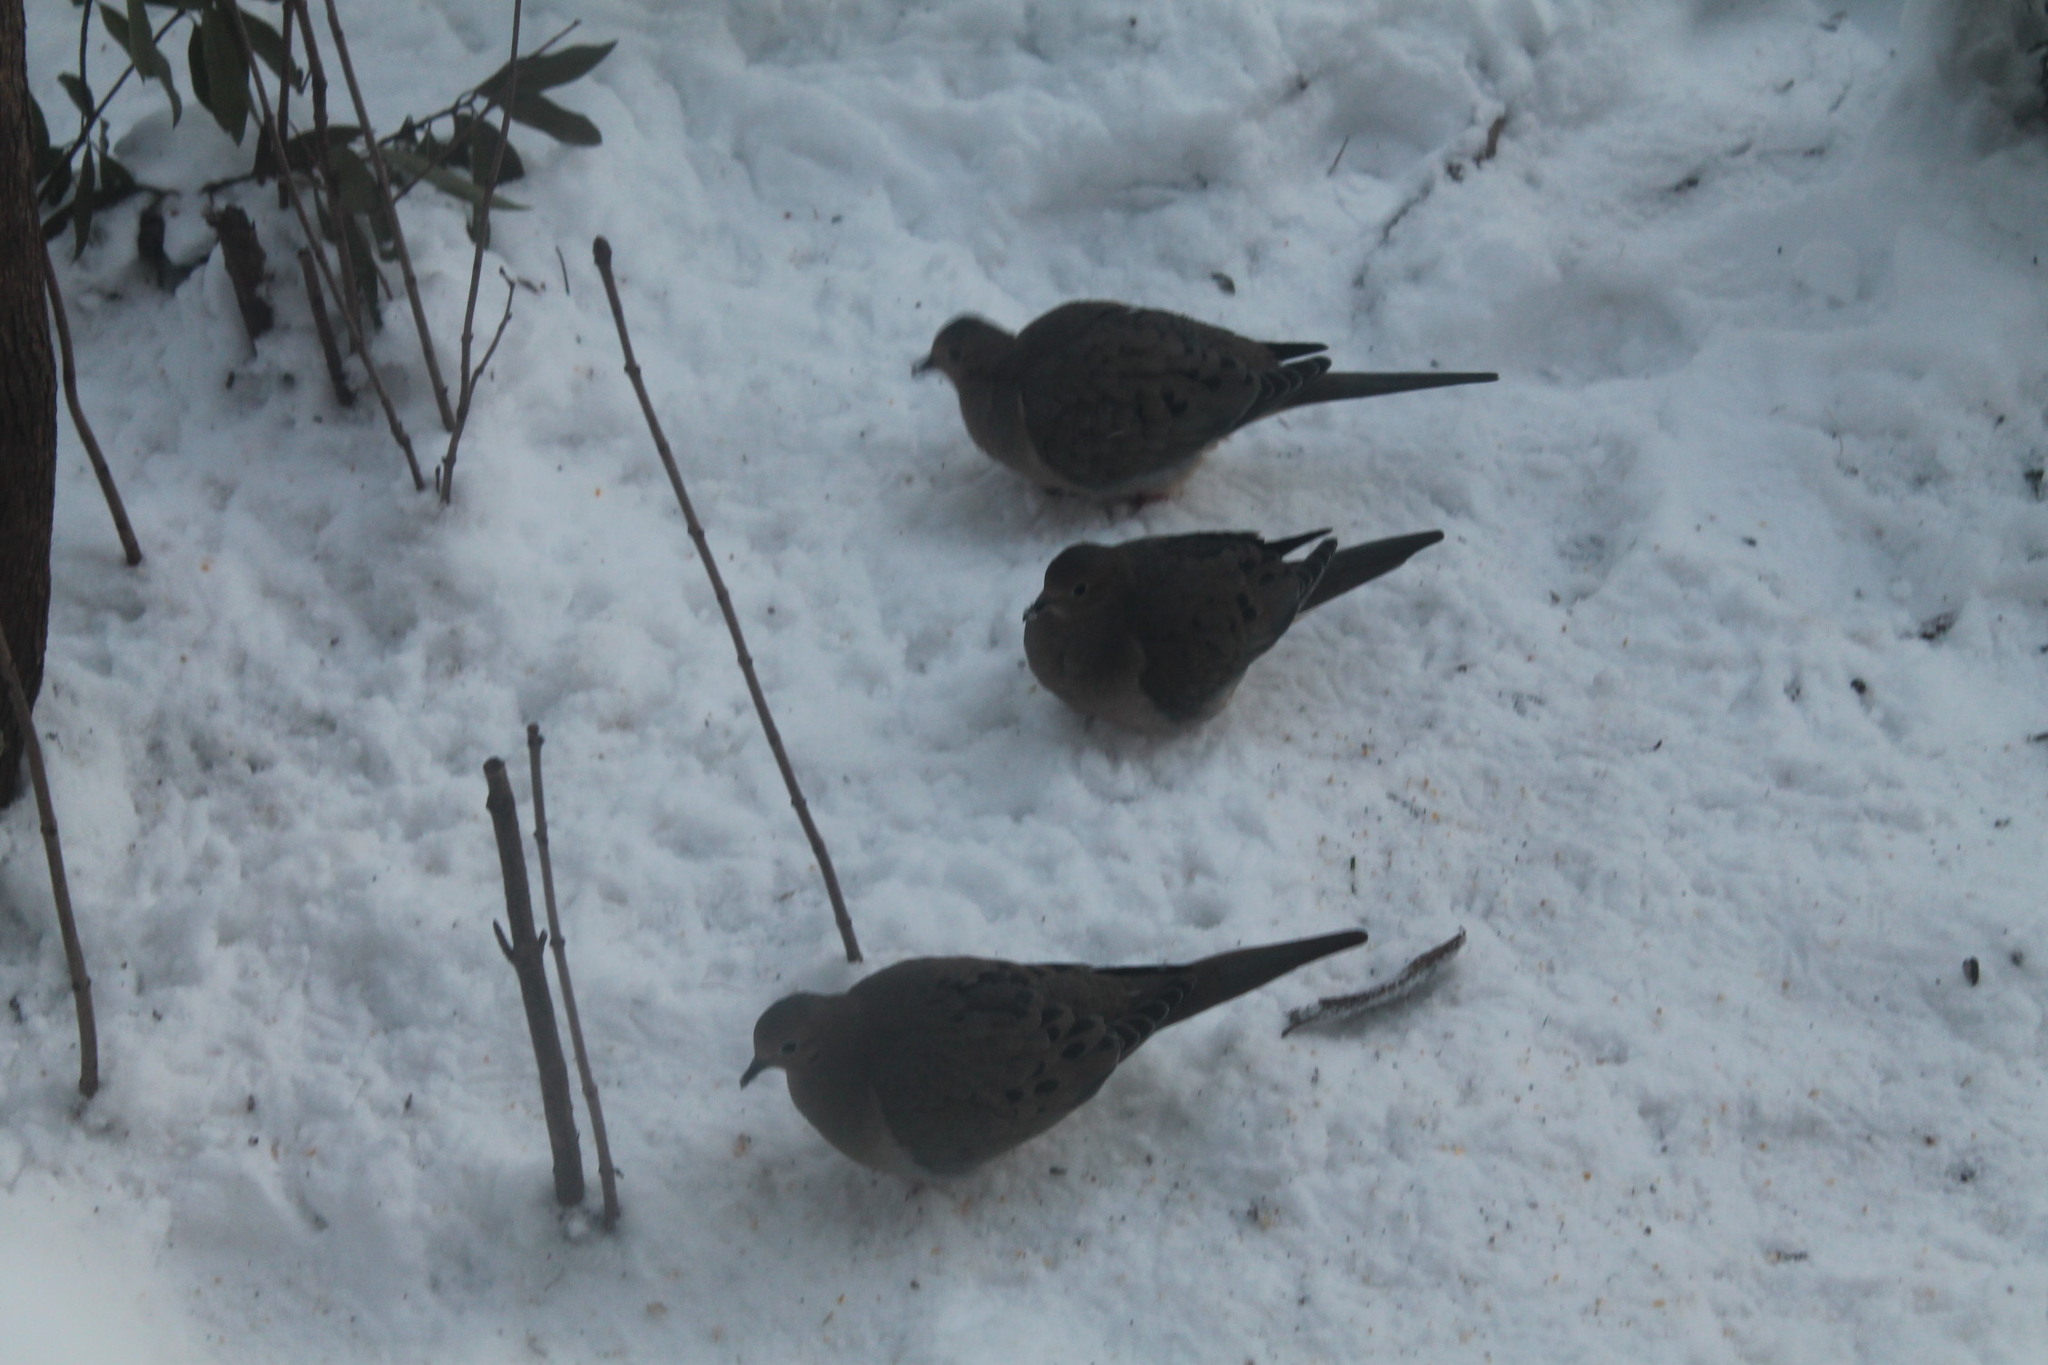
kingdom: Animalia
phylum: Chordata
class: Aves
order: Columbiformes
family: Columbidae
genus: Zenaida
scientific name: Zenaida macroura
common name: Mourning dove
